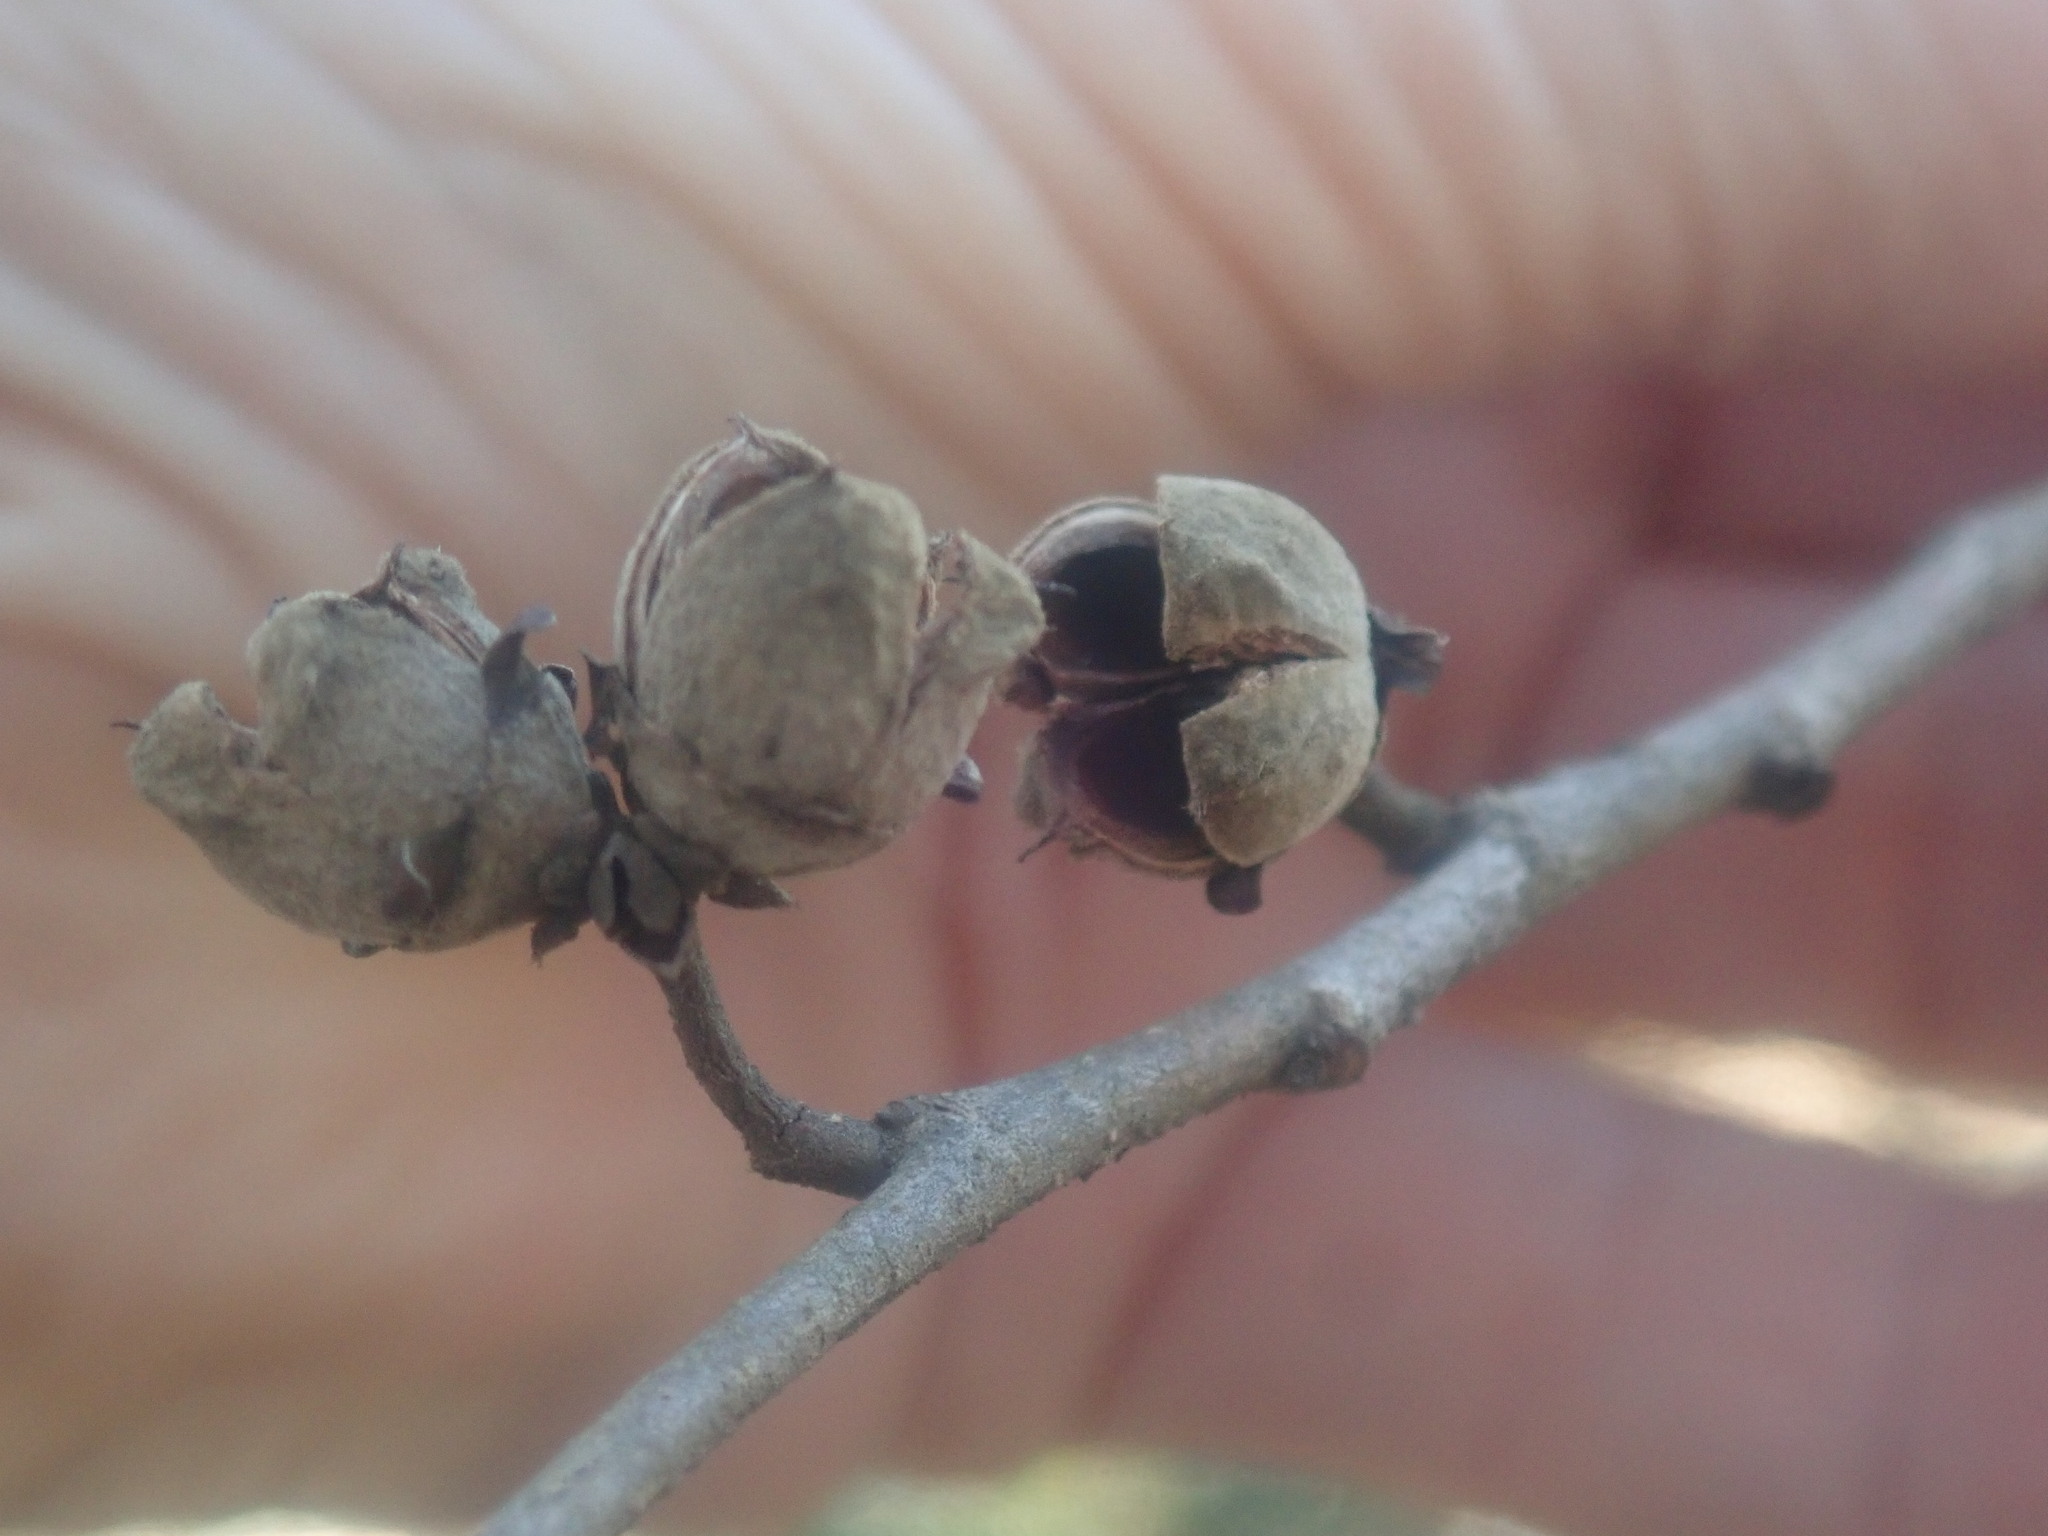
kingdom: Plantae
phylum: Tracheophyta
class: Magnoliopsida
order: Saxifragales
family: Hamamelidaceae
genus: Hamamelis
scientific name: Hamamelis virginiana
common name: Witch-hazel
